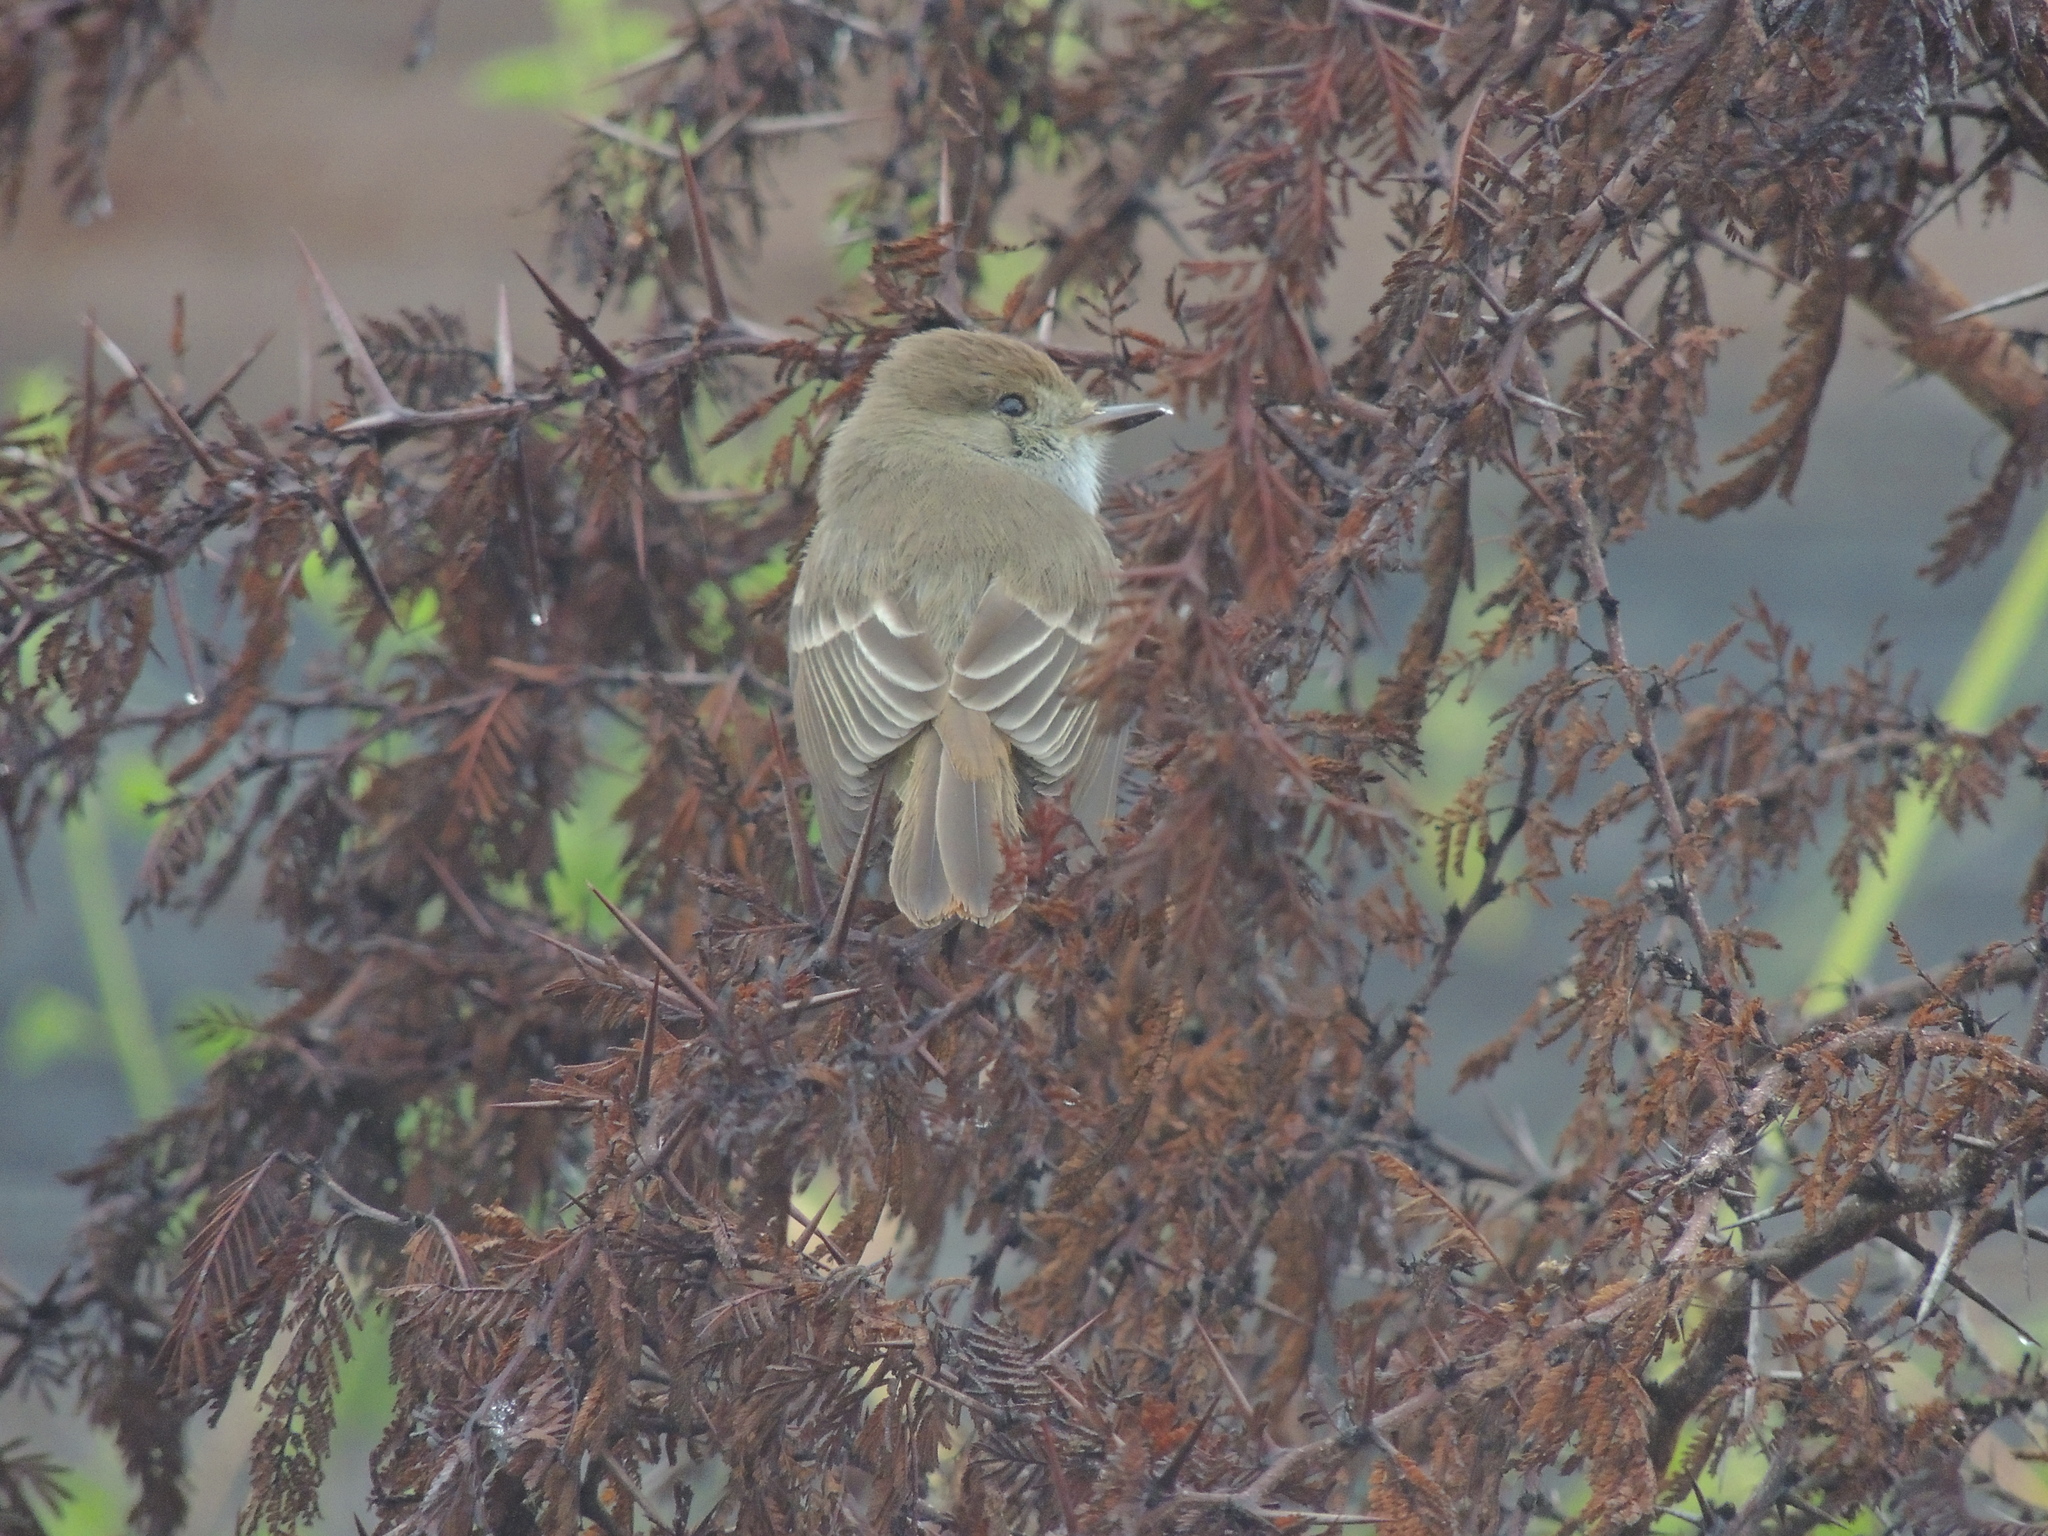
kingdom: Animalia
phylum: Chordata
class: Aves
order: Passeriformes
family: Tyrannidae
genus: Myiarchus
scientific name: Myiarchus magnirostris
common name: Galapagos flycatcher
